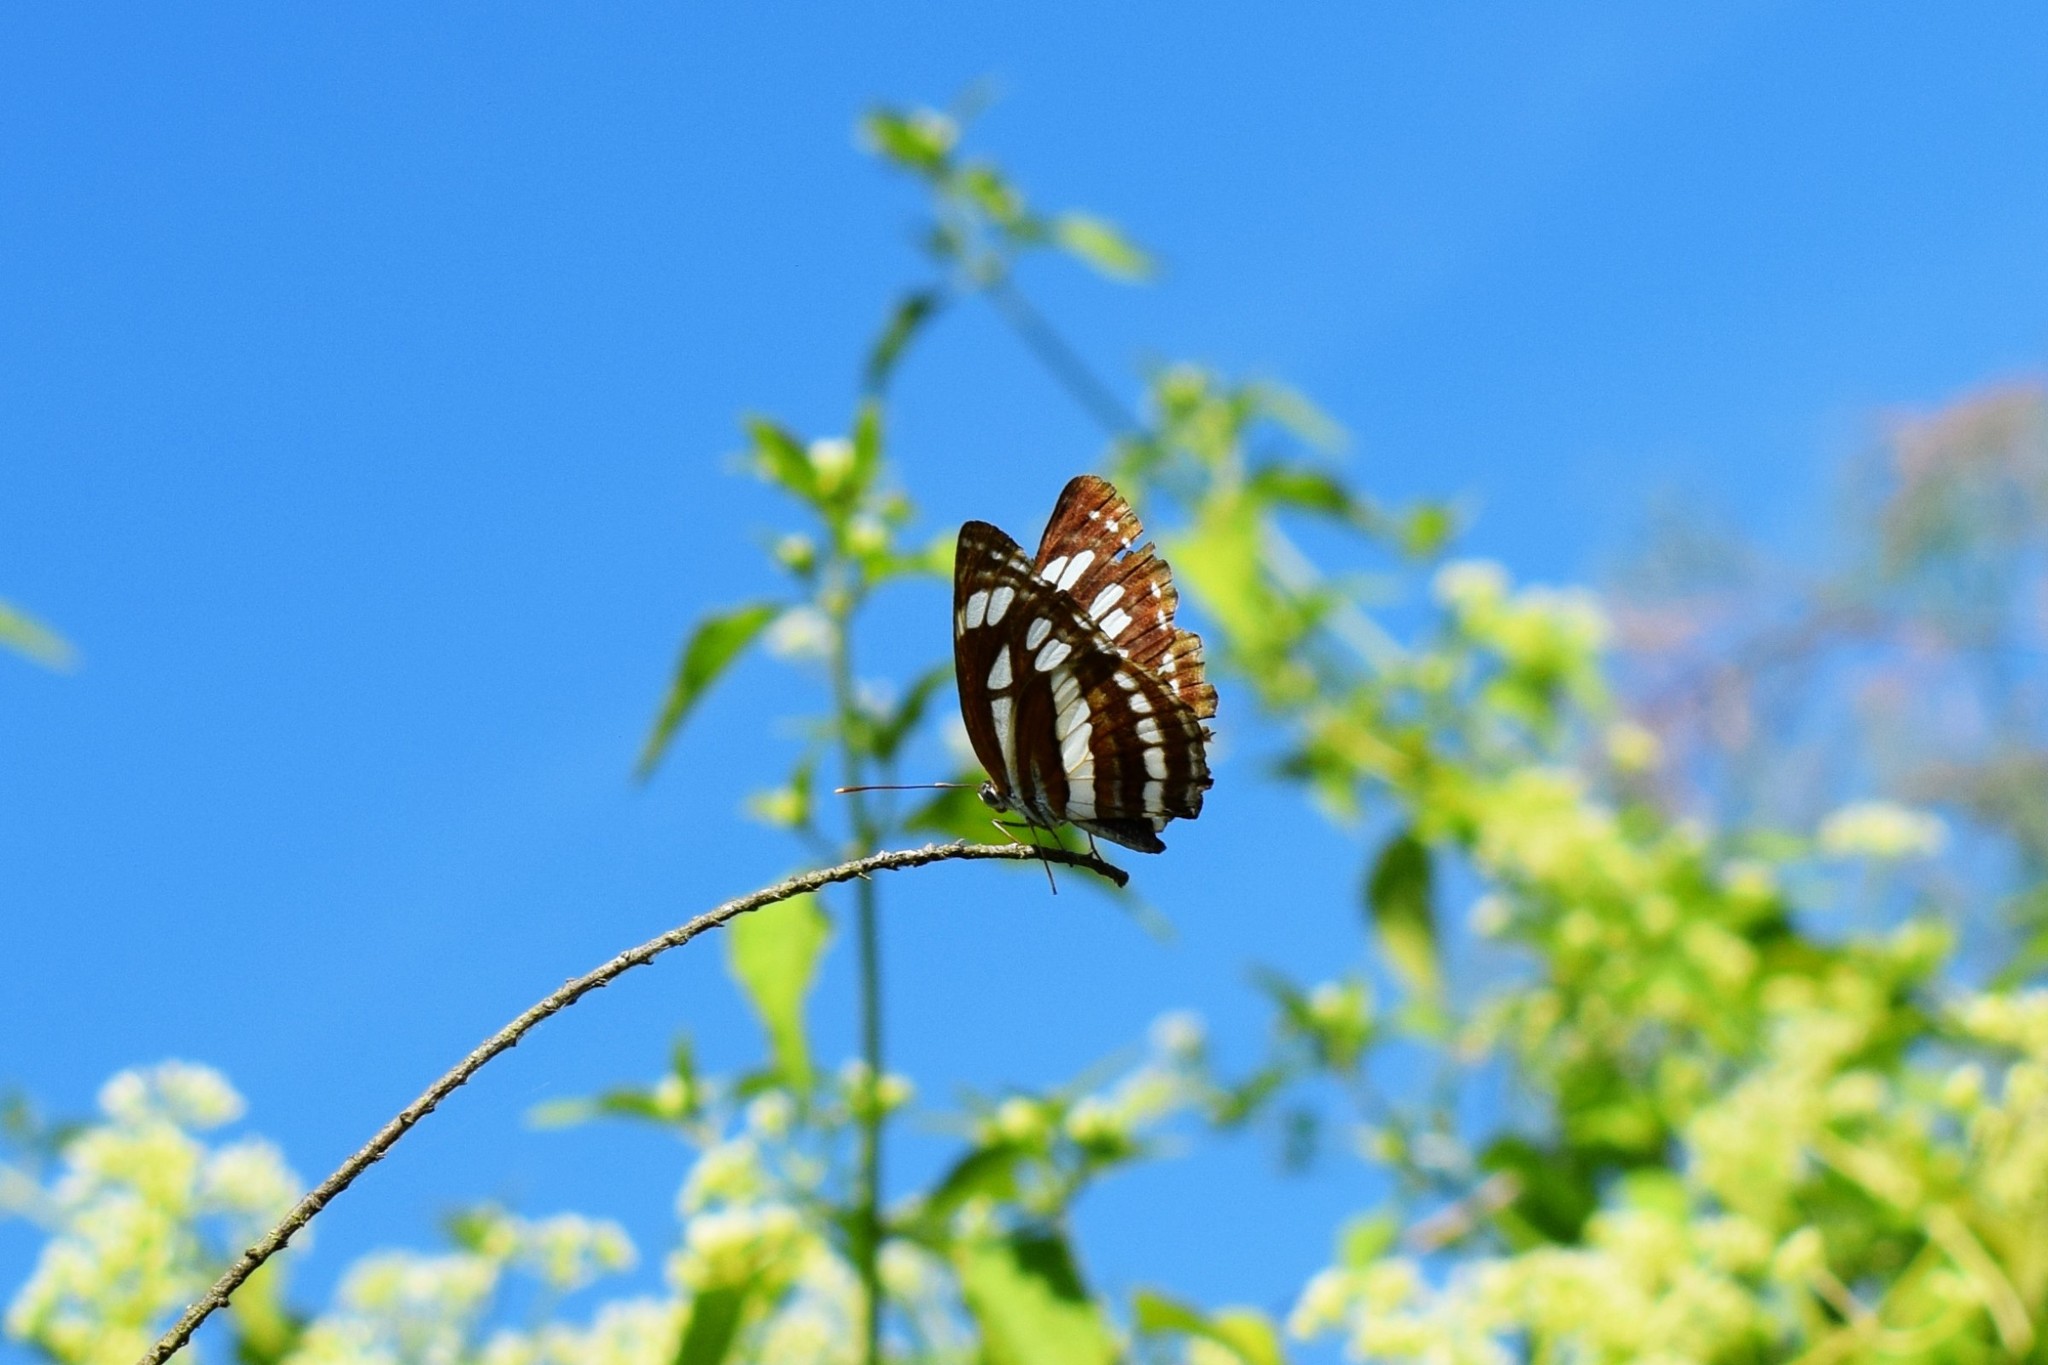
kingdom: Animalia
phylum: Arthropoda
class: Insecta
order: Lepidoptera
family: Nymphalidae
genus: Neptis
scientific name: Neptis hylas
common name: Common sailer
